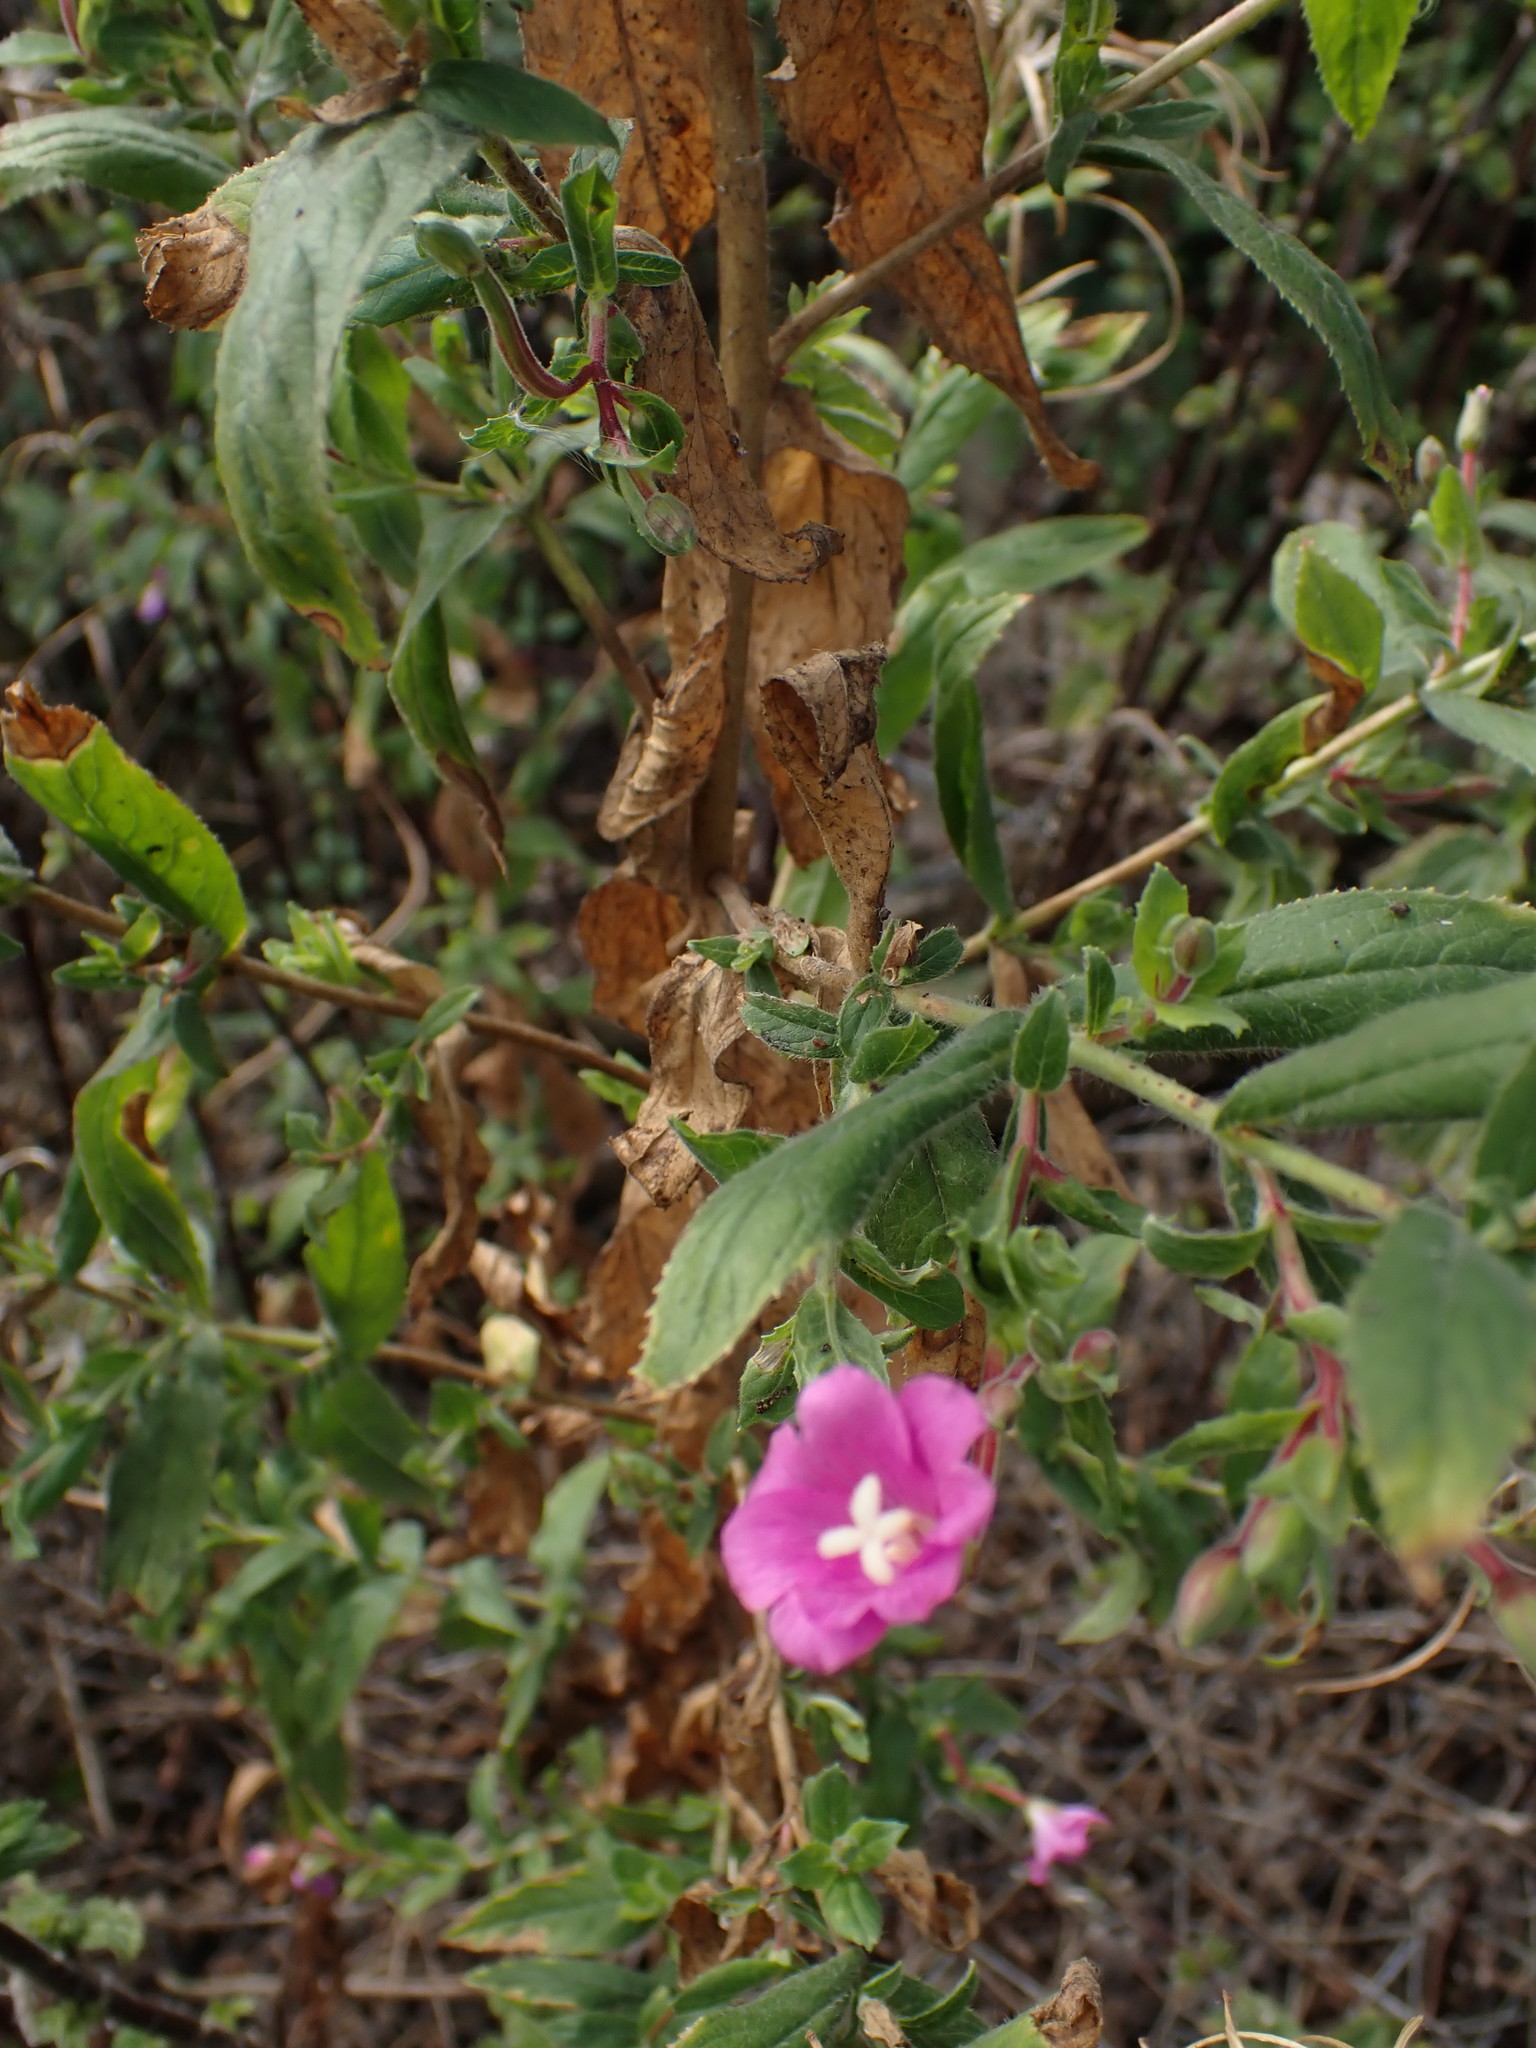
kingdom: Plantae
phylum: Tracheophyta
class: Magnoliopsida
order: Myrtales
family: Onagraceae
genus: Epilobium
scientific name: Epilobium hirsutum
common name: Great willowherb
